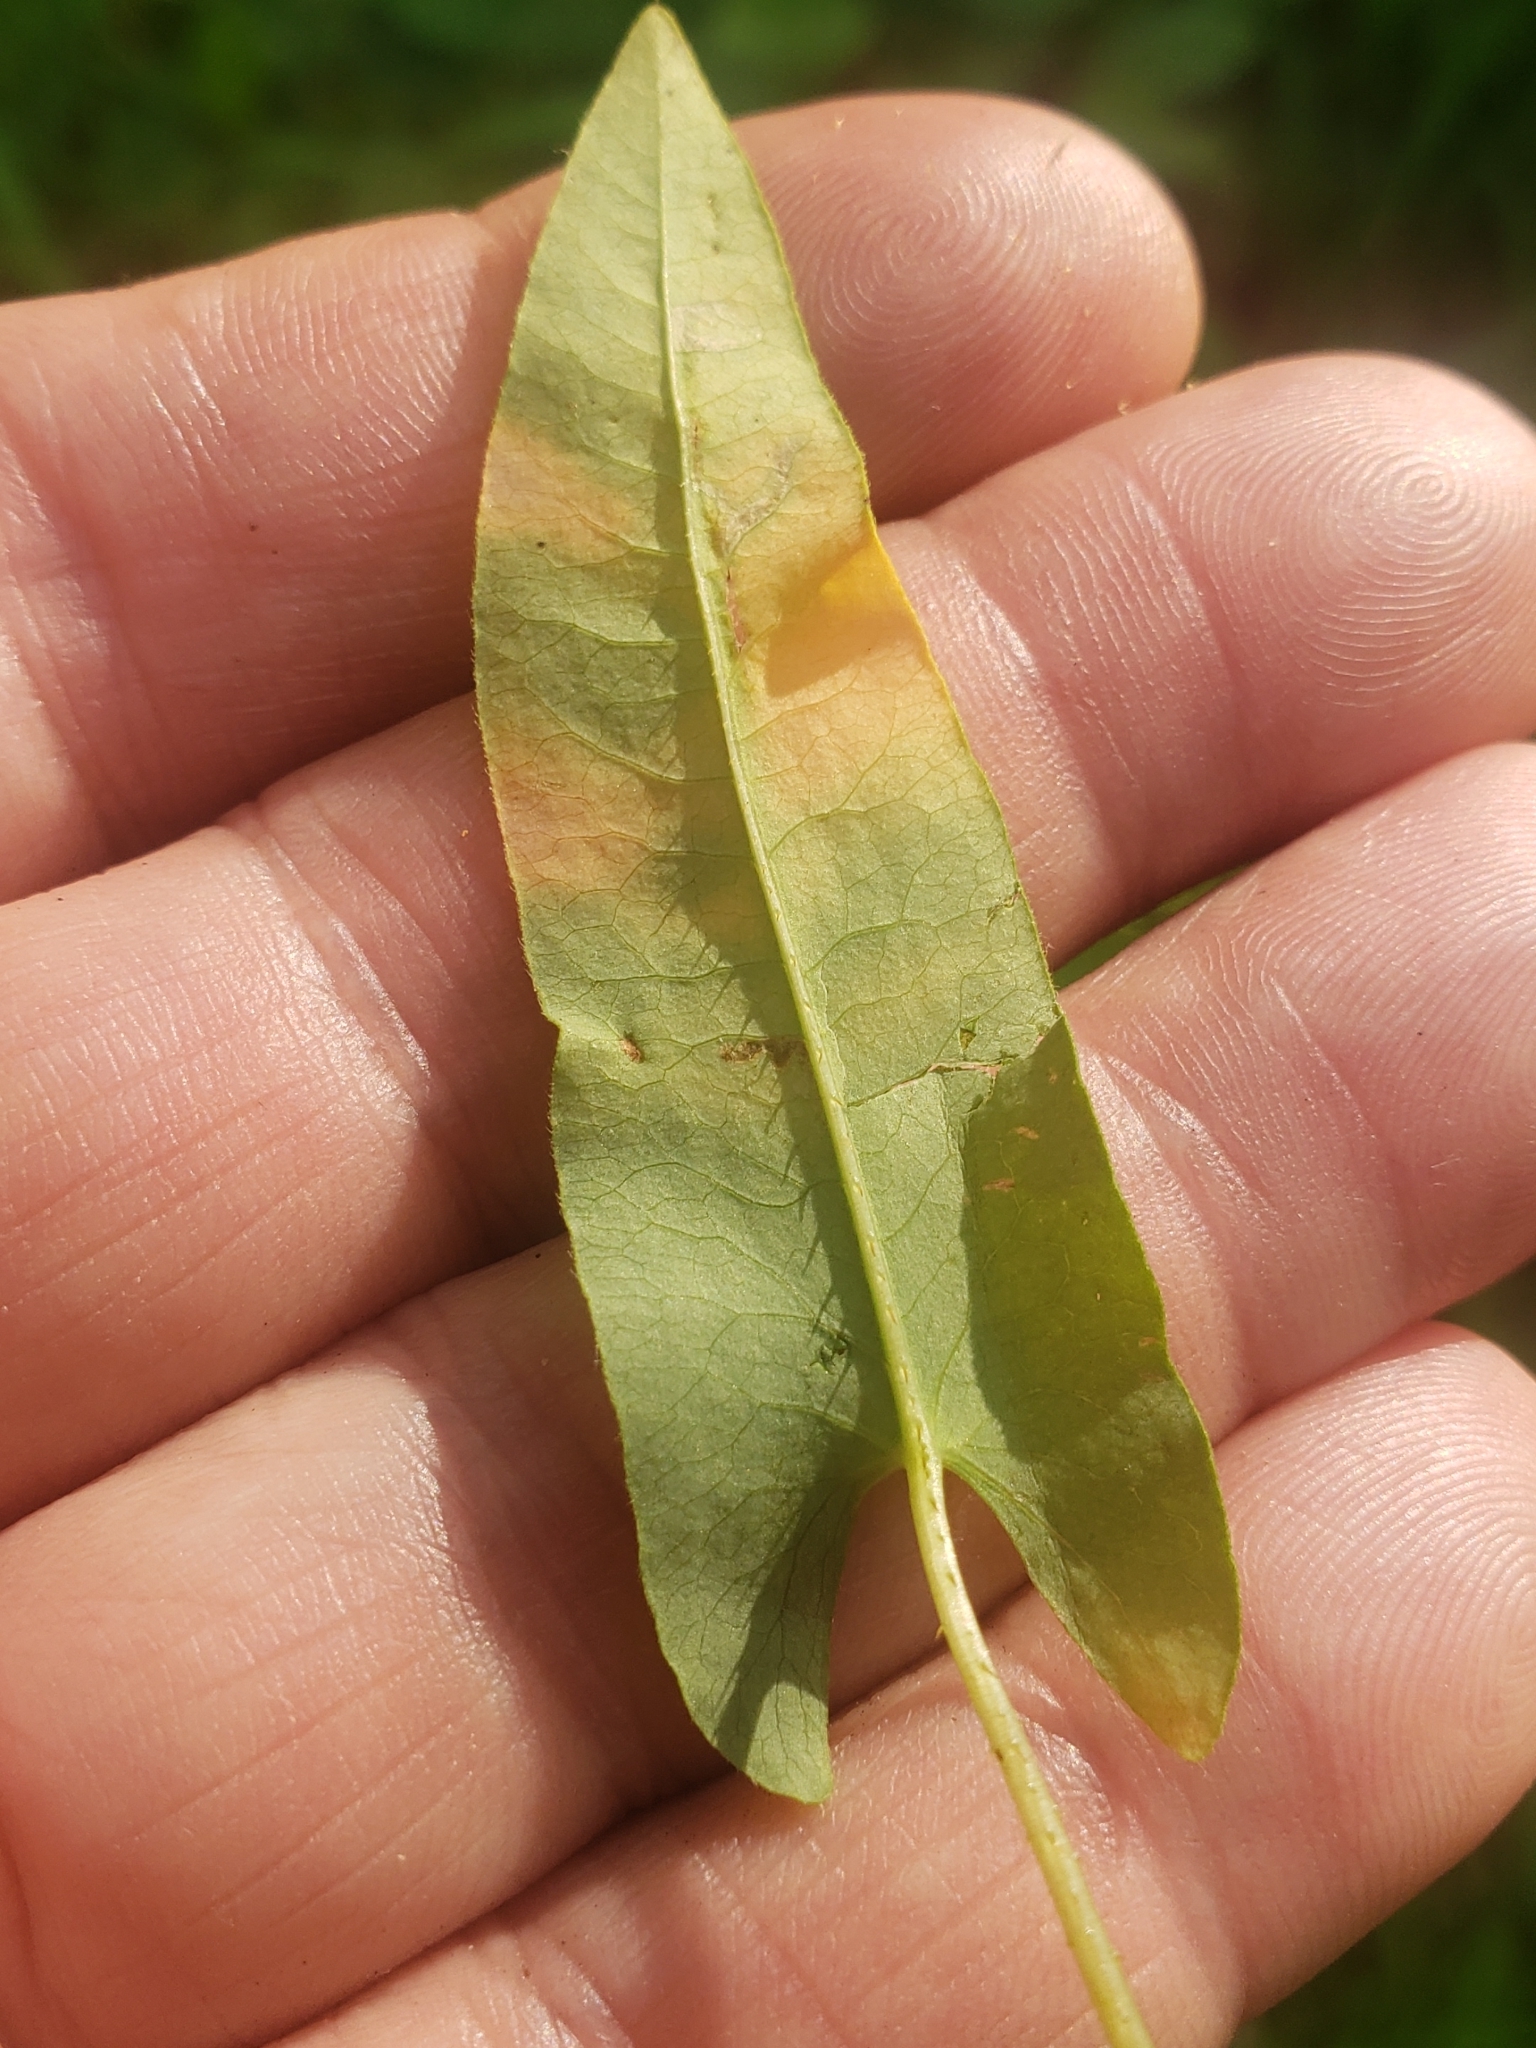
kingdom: Plantae
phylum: Tracheophyta
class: Magnoliopsida
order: Caryophyllales
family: Polygonaceae
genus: Persicaria
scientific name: Persicaria sagittata
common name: American tearthumb
